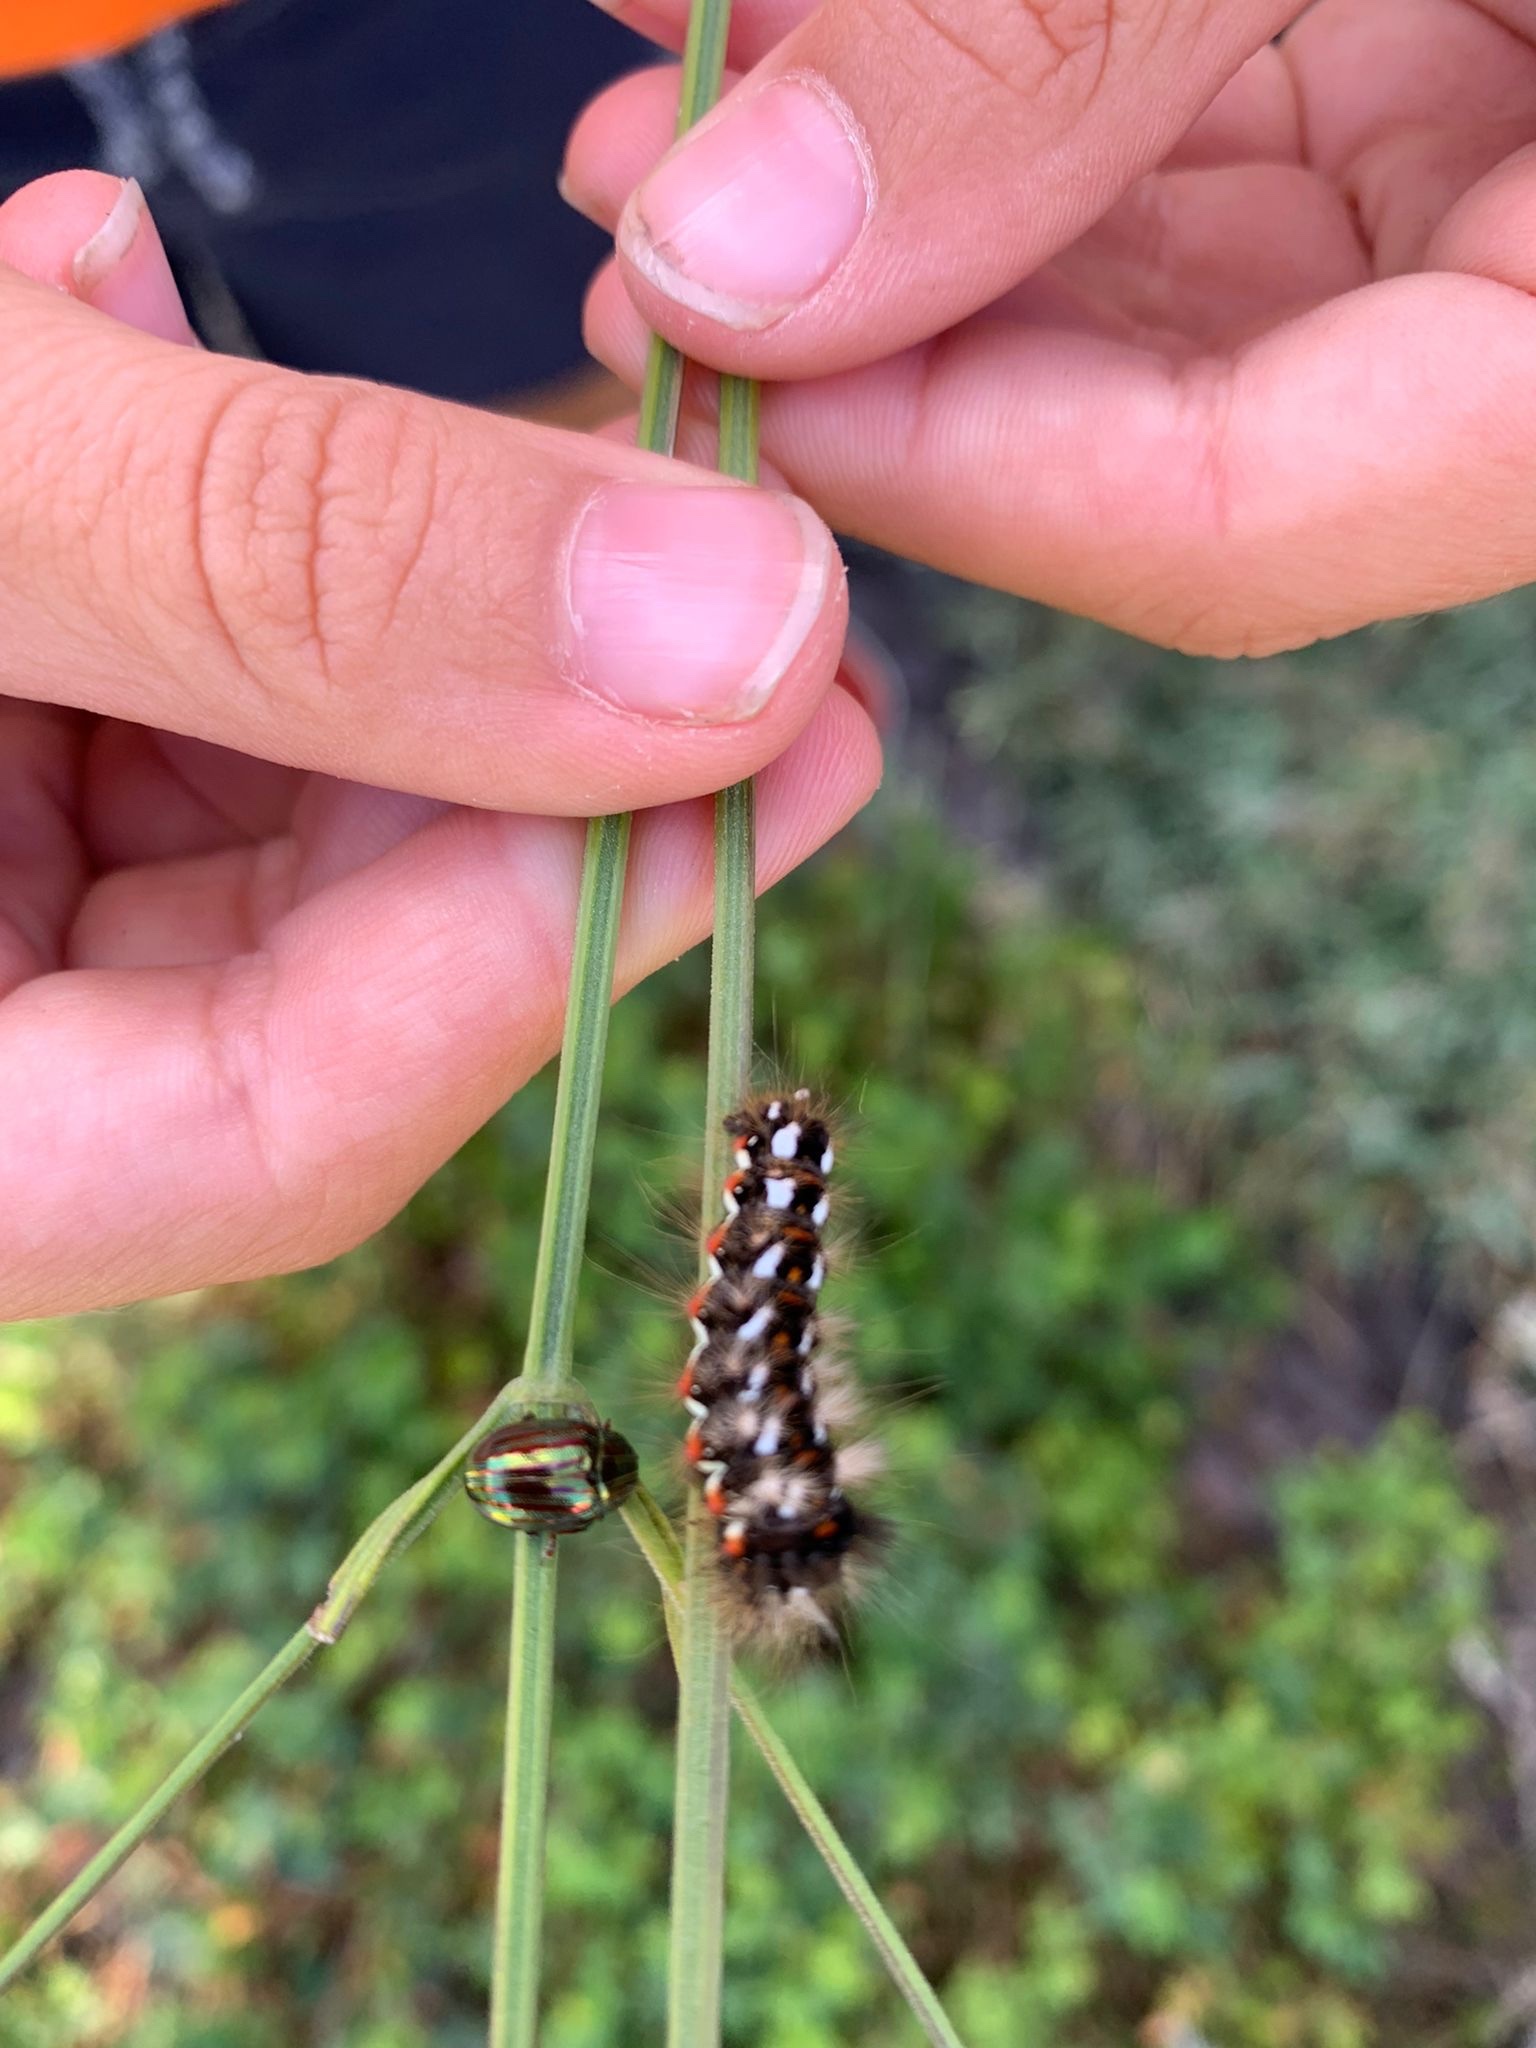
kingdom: Animalia
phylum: Arthropoda
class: Insecta
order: Lepidoptera
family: Noctuidae
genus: Acronicta
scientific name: Acronicta rumicis
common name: Knot grass
